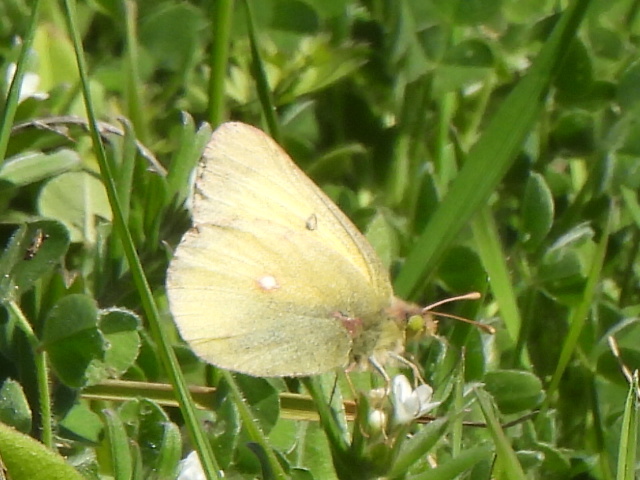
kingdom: Animalia
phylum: Arthropoda
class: Insecta
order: Lepidoptera
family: Pieridae
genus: Colias
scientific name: Colias eurytheme
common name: Alfalfa butterfly
